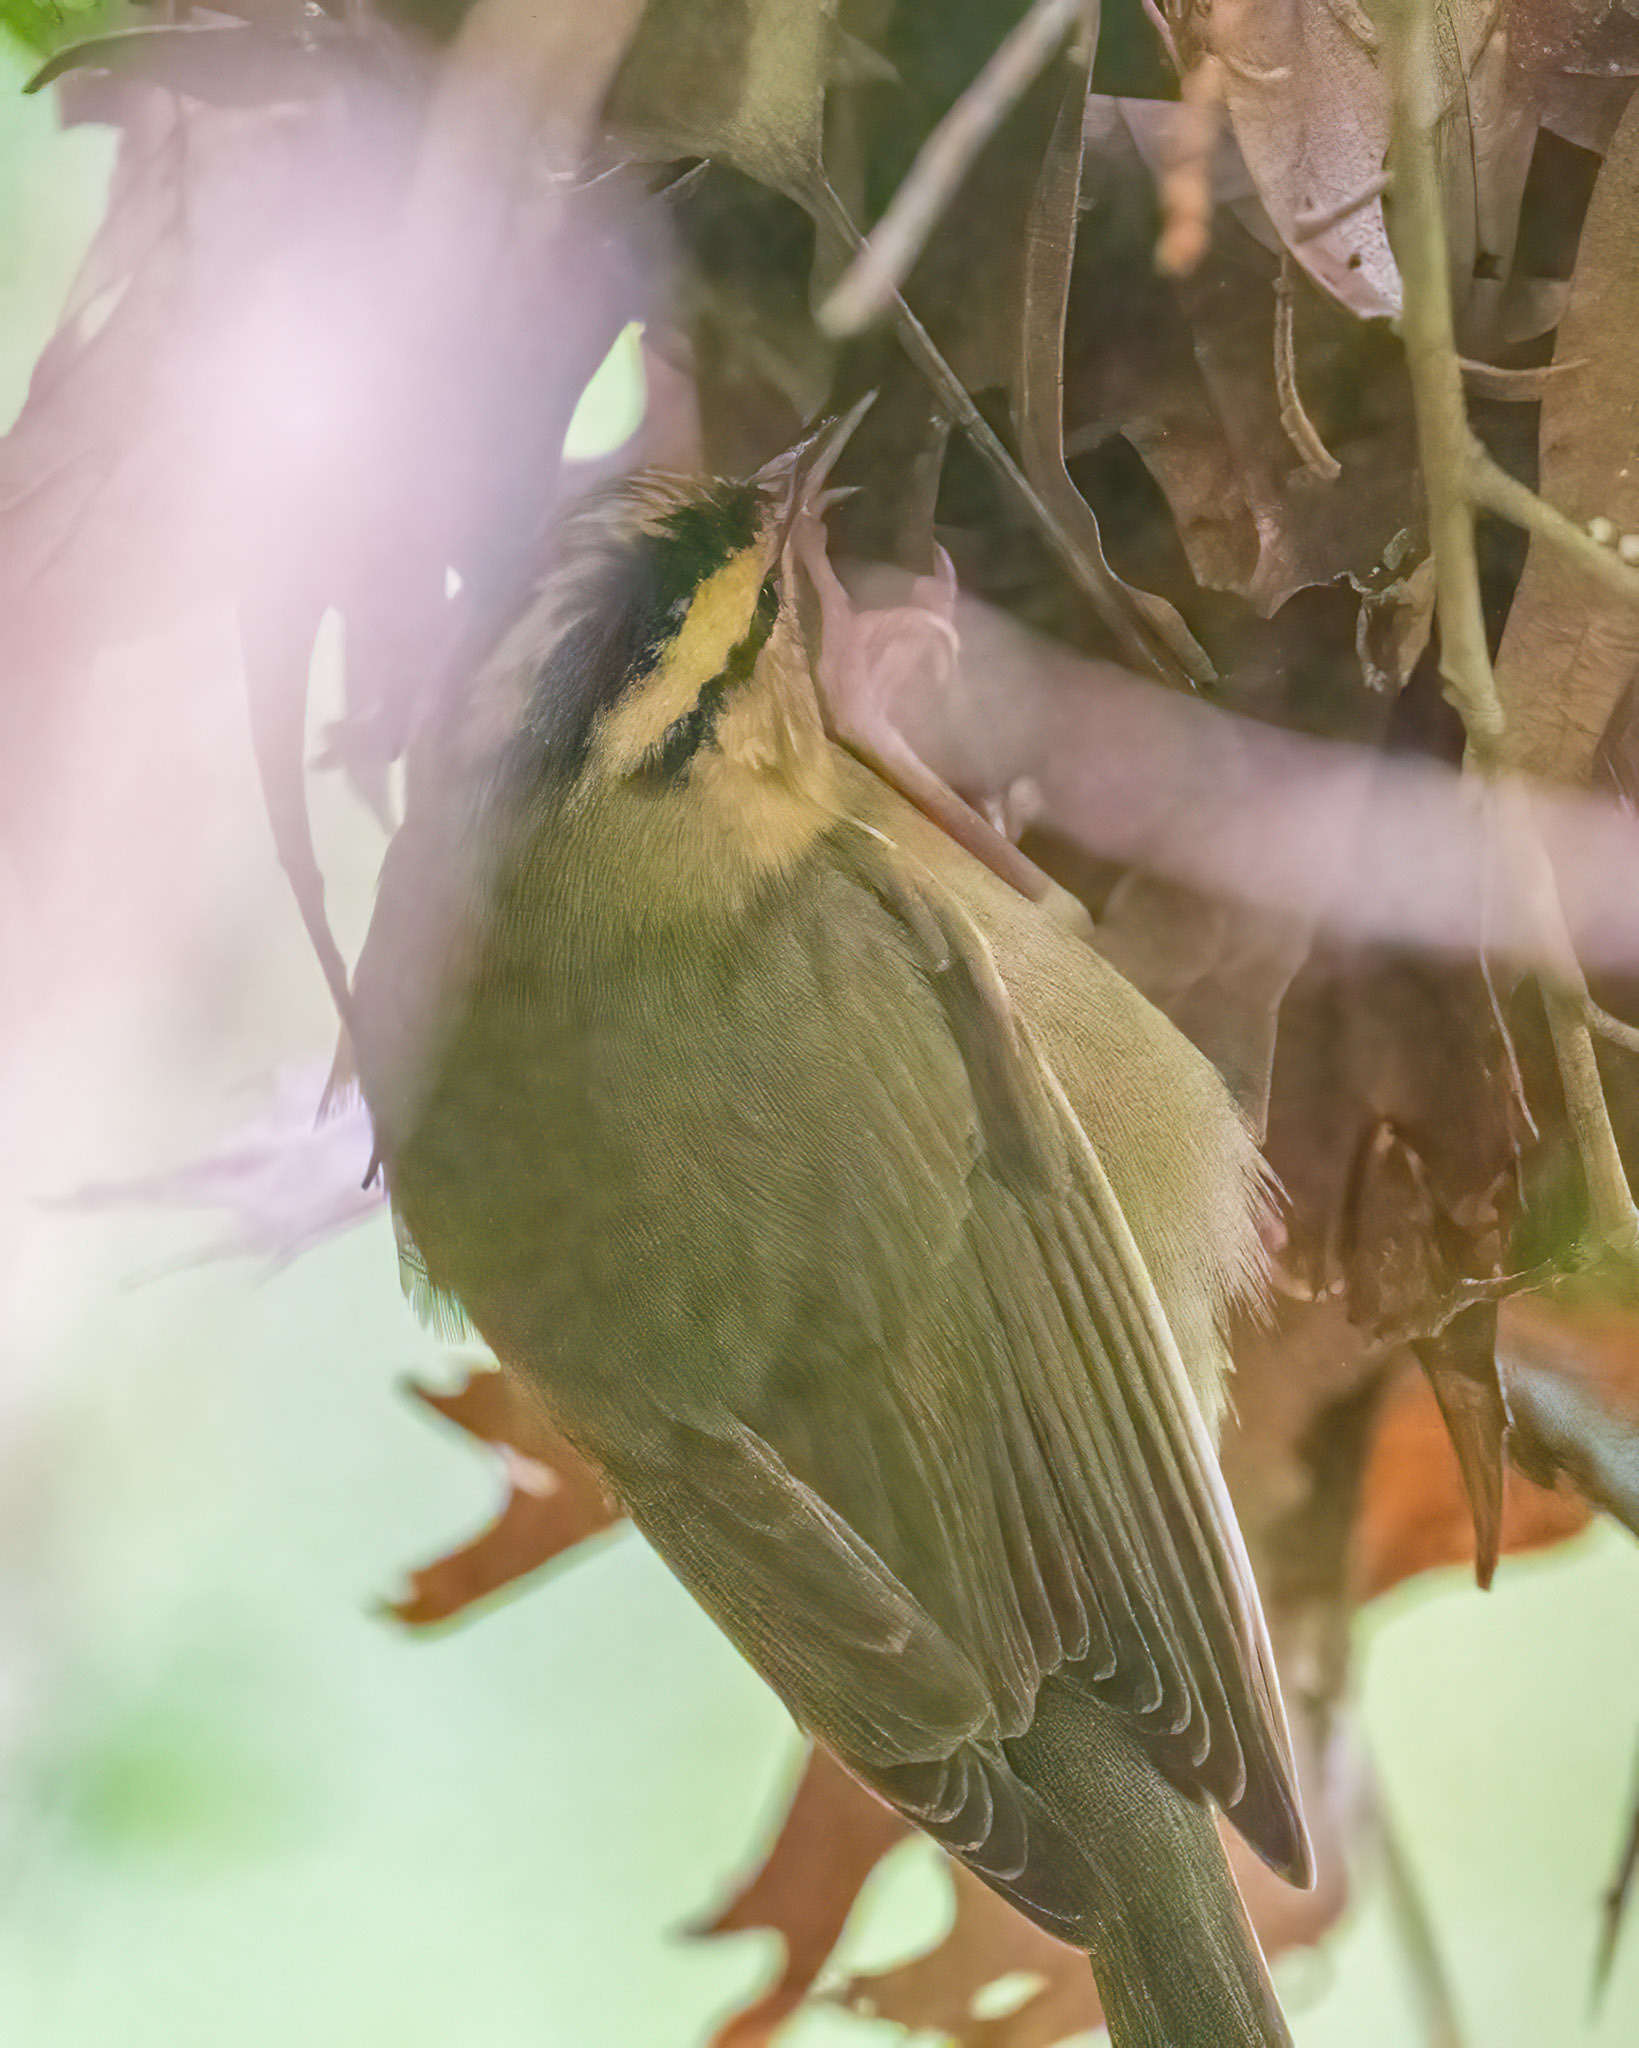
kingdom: Animalia
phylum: Chordata
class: Aves
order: Passeriformes
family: Parulidae
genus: Helmitheros
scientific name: Helmitheros vermivorum
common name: Worm-eating warbler
